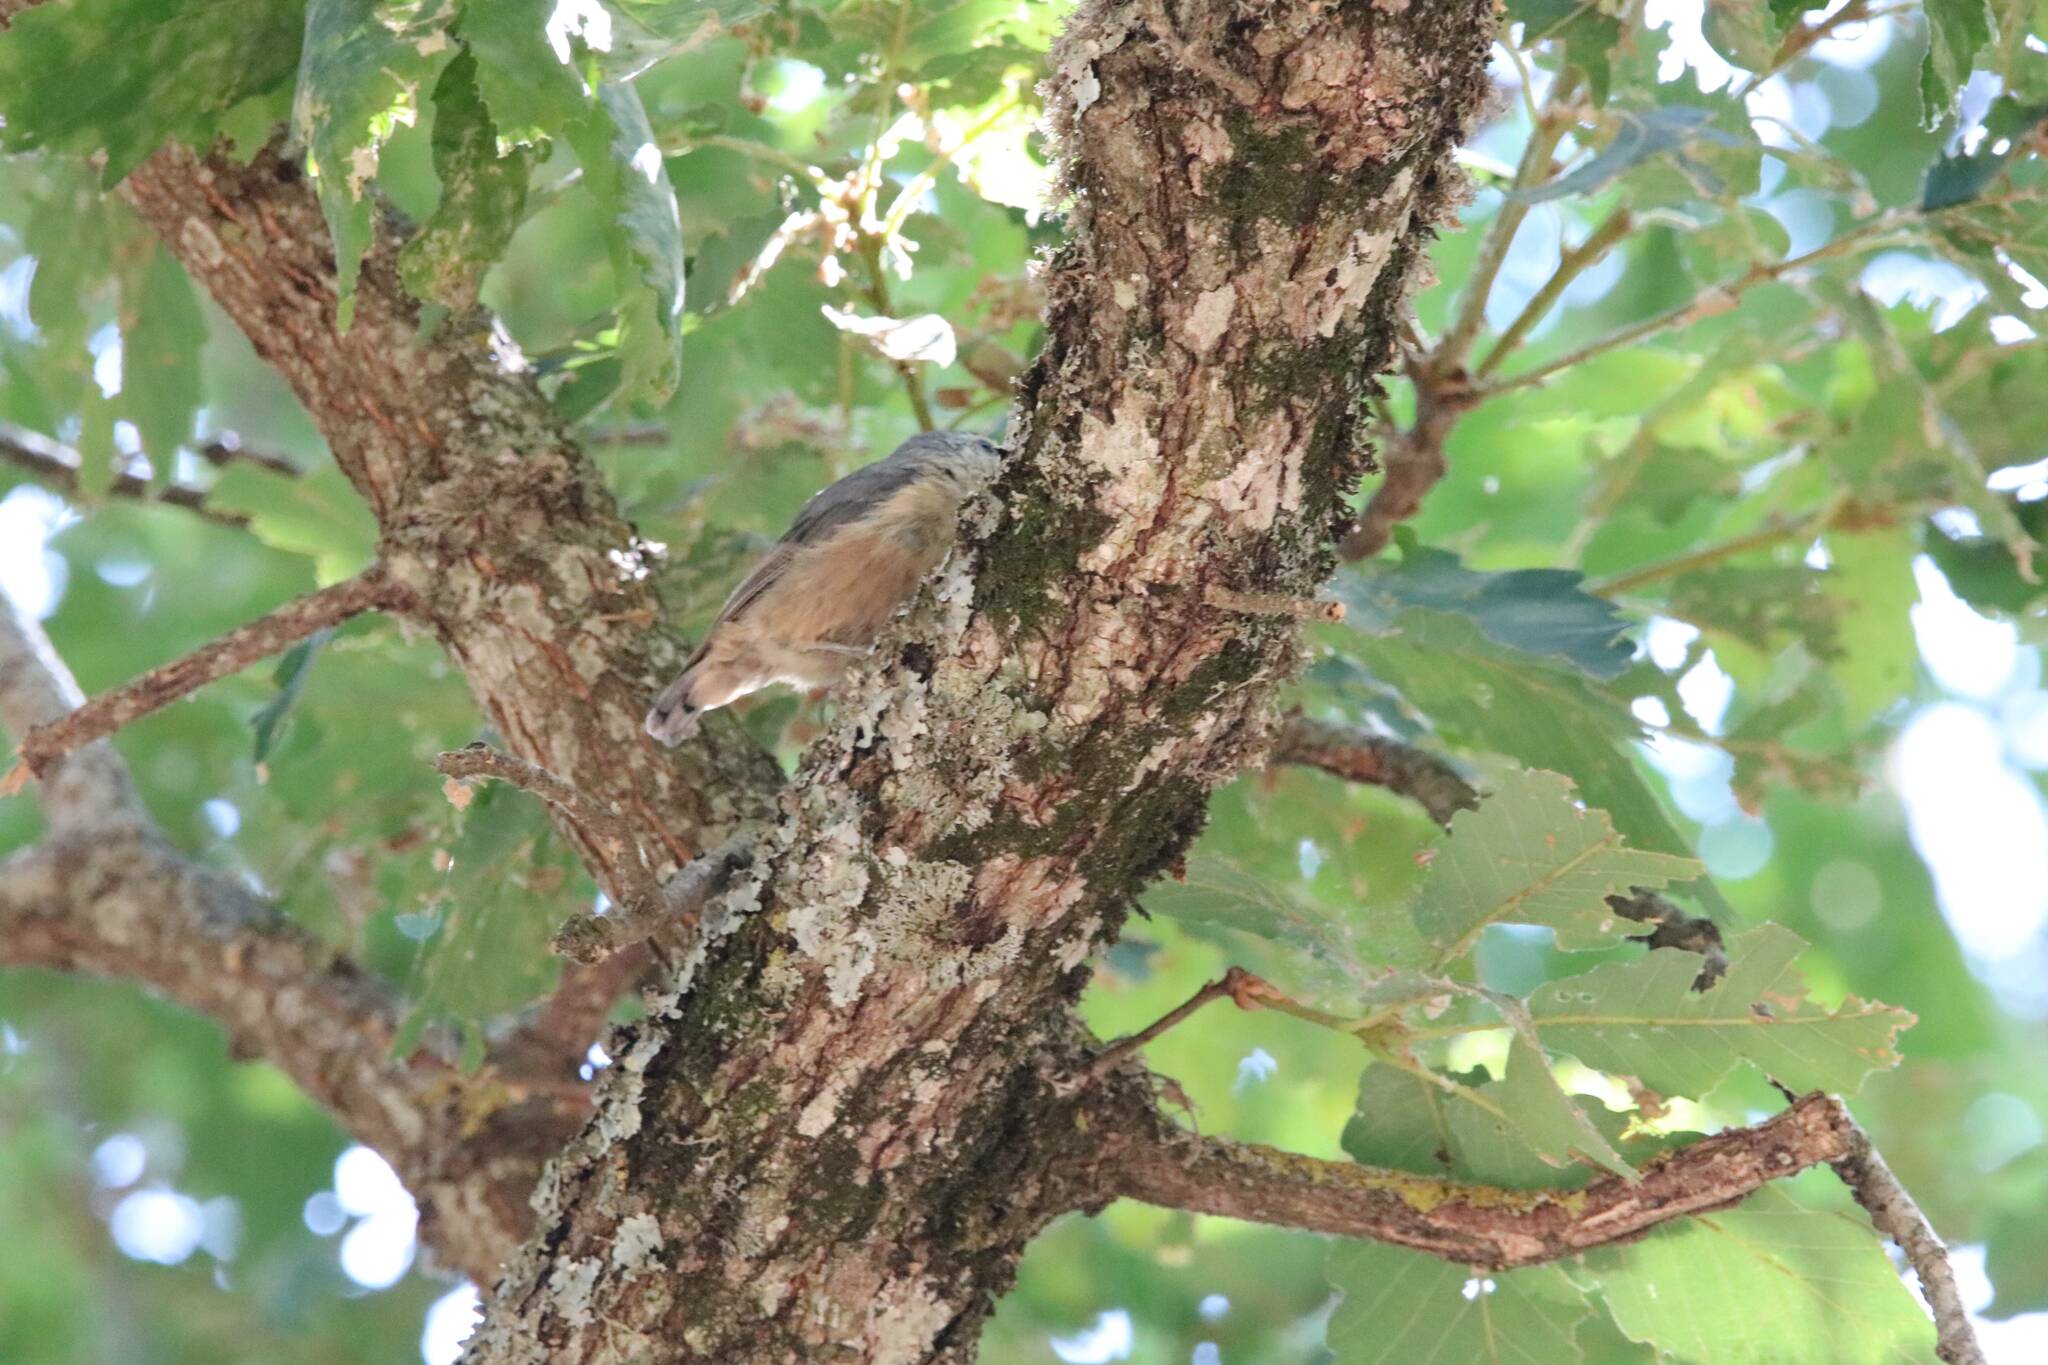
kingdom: Animalia
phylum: Chordata
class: Aves
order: Passeriformes
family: Sittidae
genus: Sitta
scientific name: Sitta ledanti
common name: Algerian nuthatch
